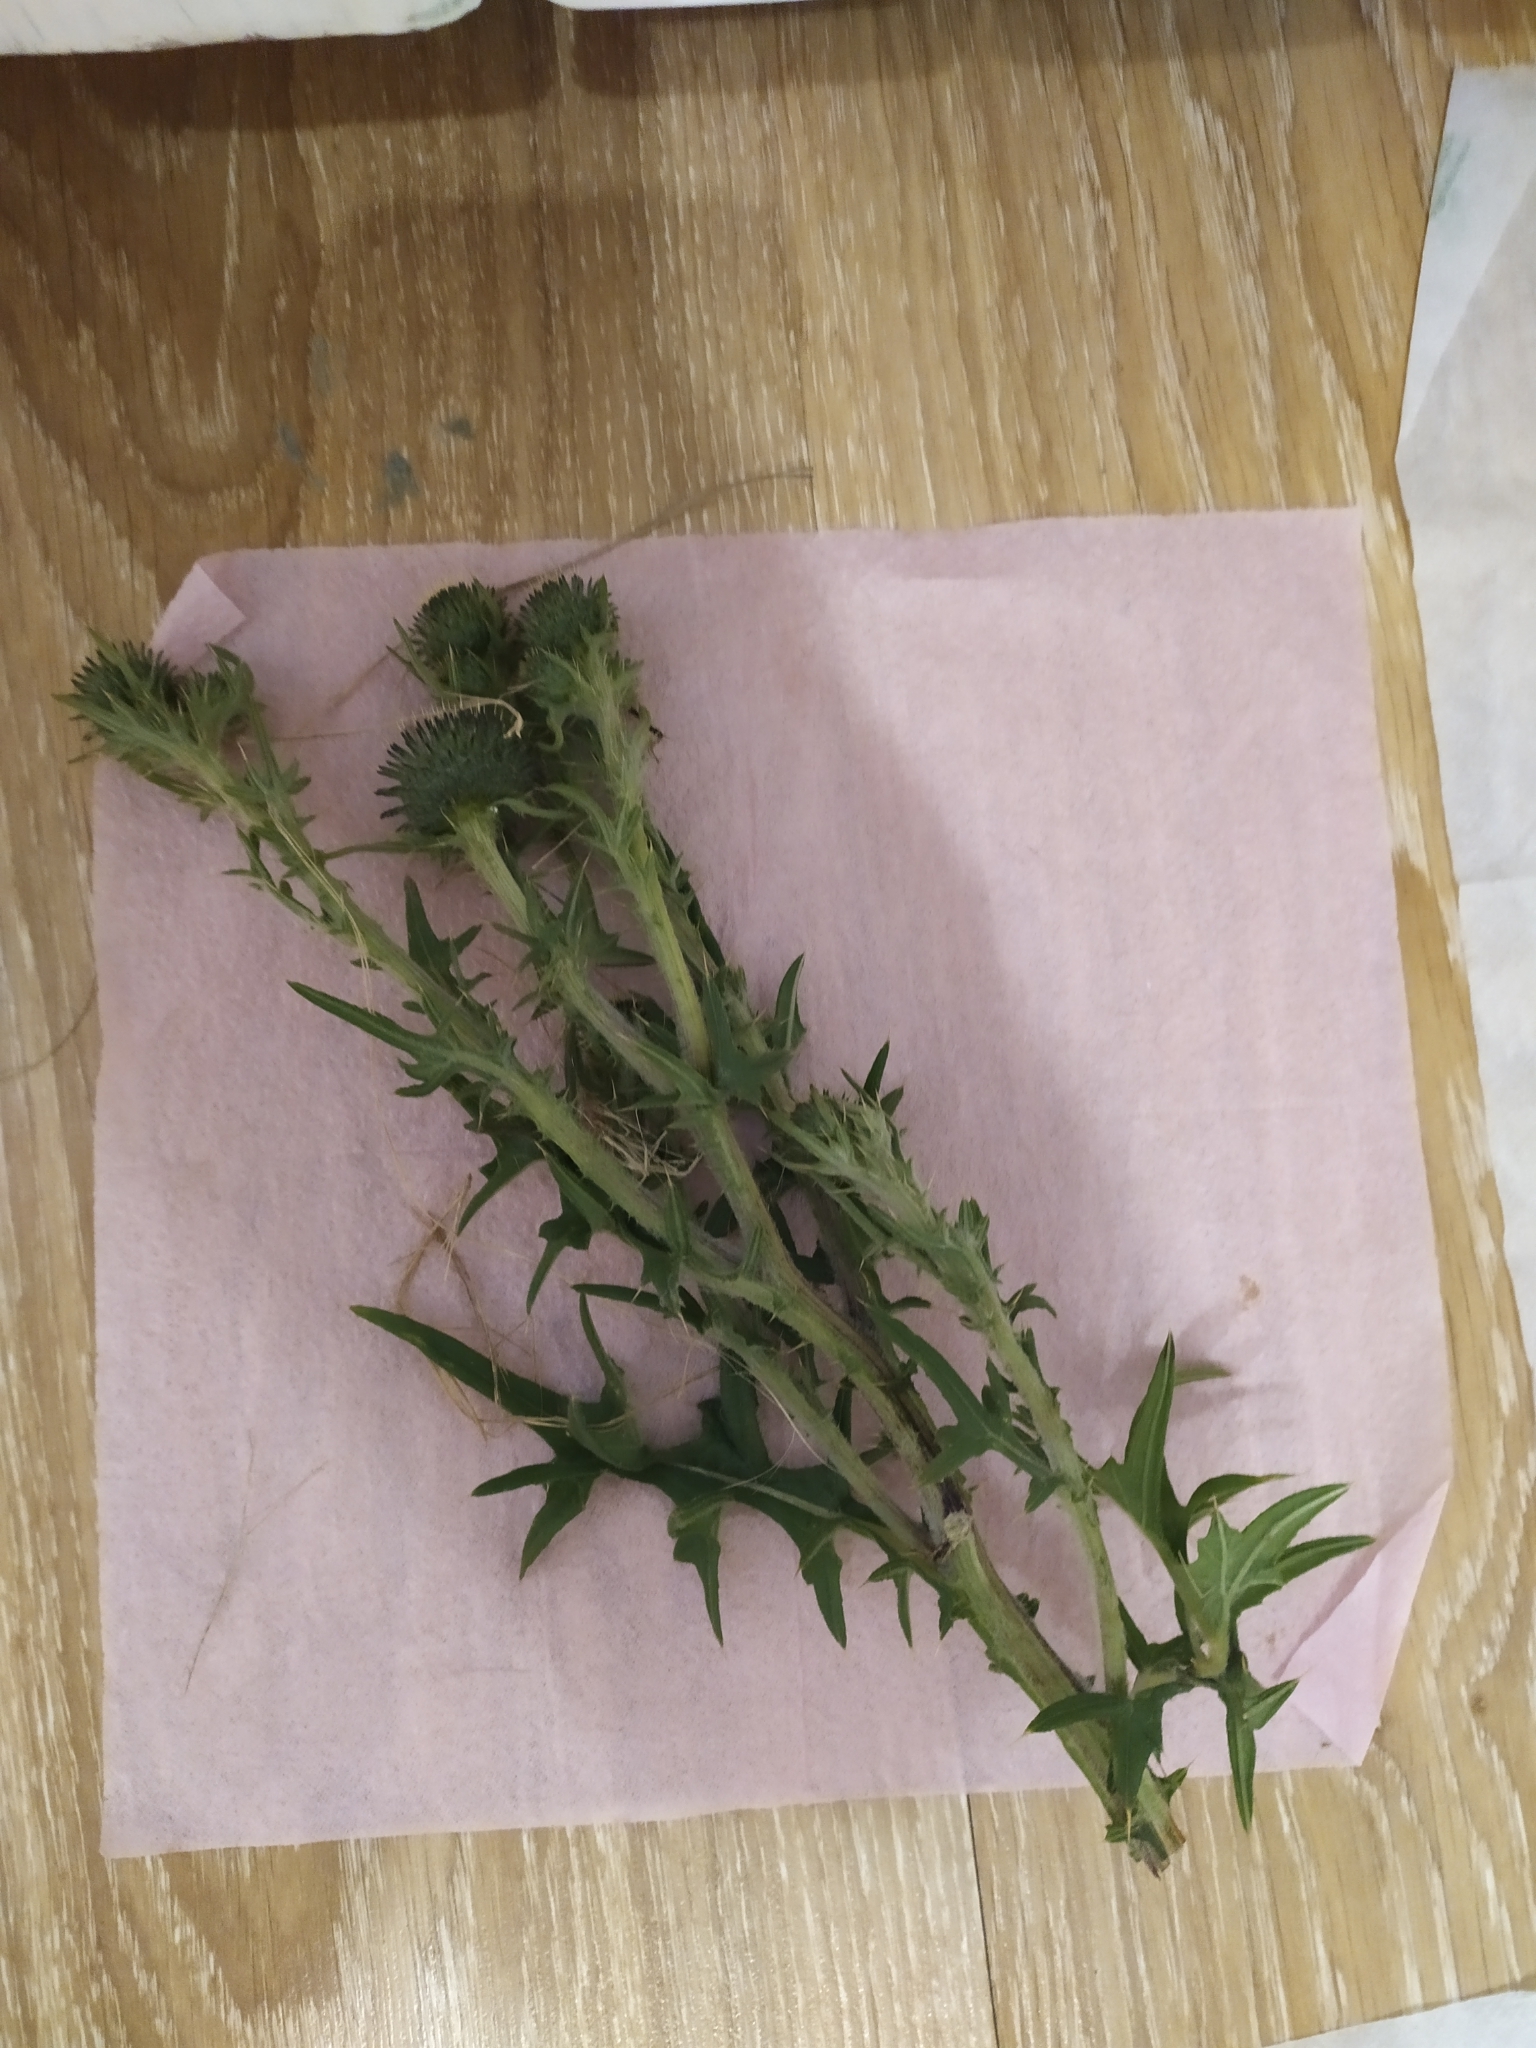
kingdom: Plantae
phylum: Tracheophyta
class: Magnoliopsida
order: Asterales
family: Asteraceae
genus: Cirsium
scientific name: Cirsium vulgare
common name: Bull thistle
